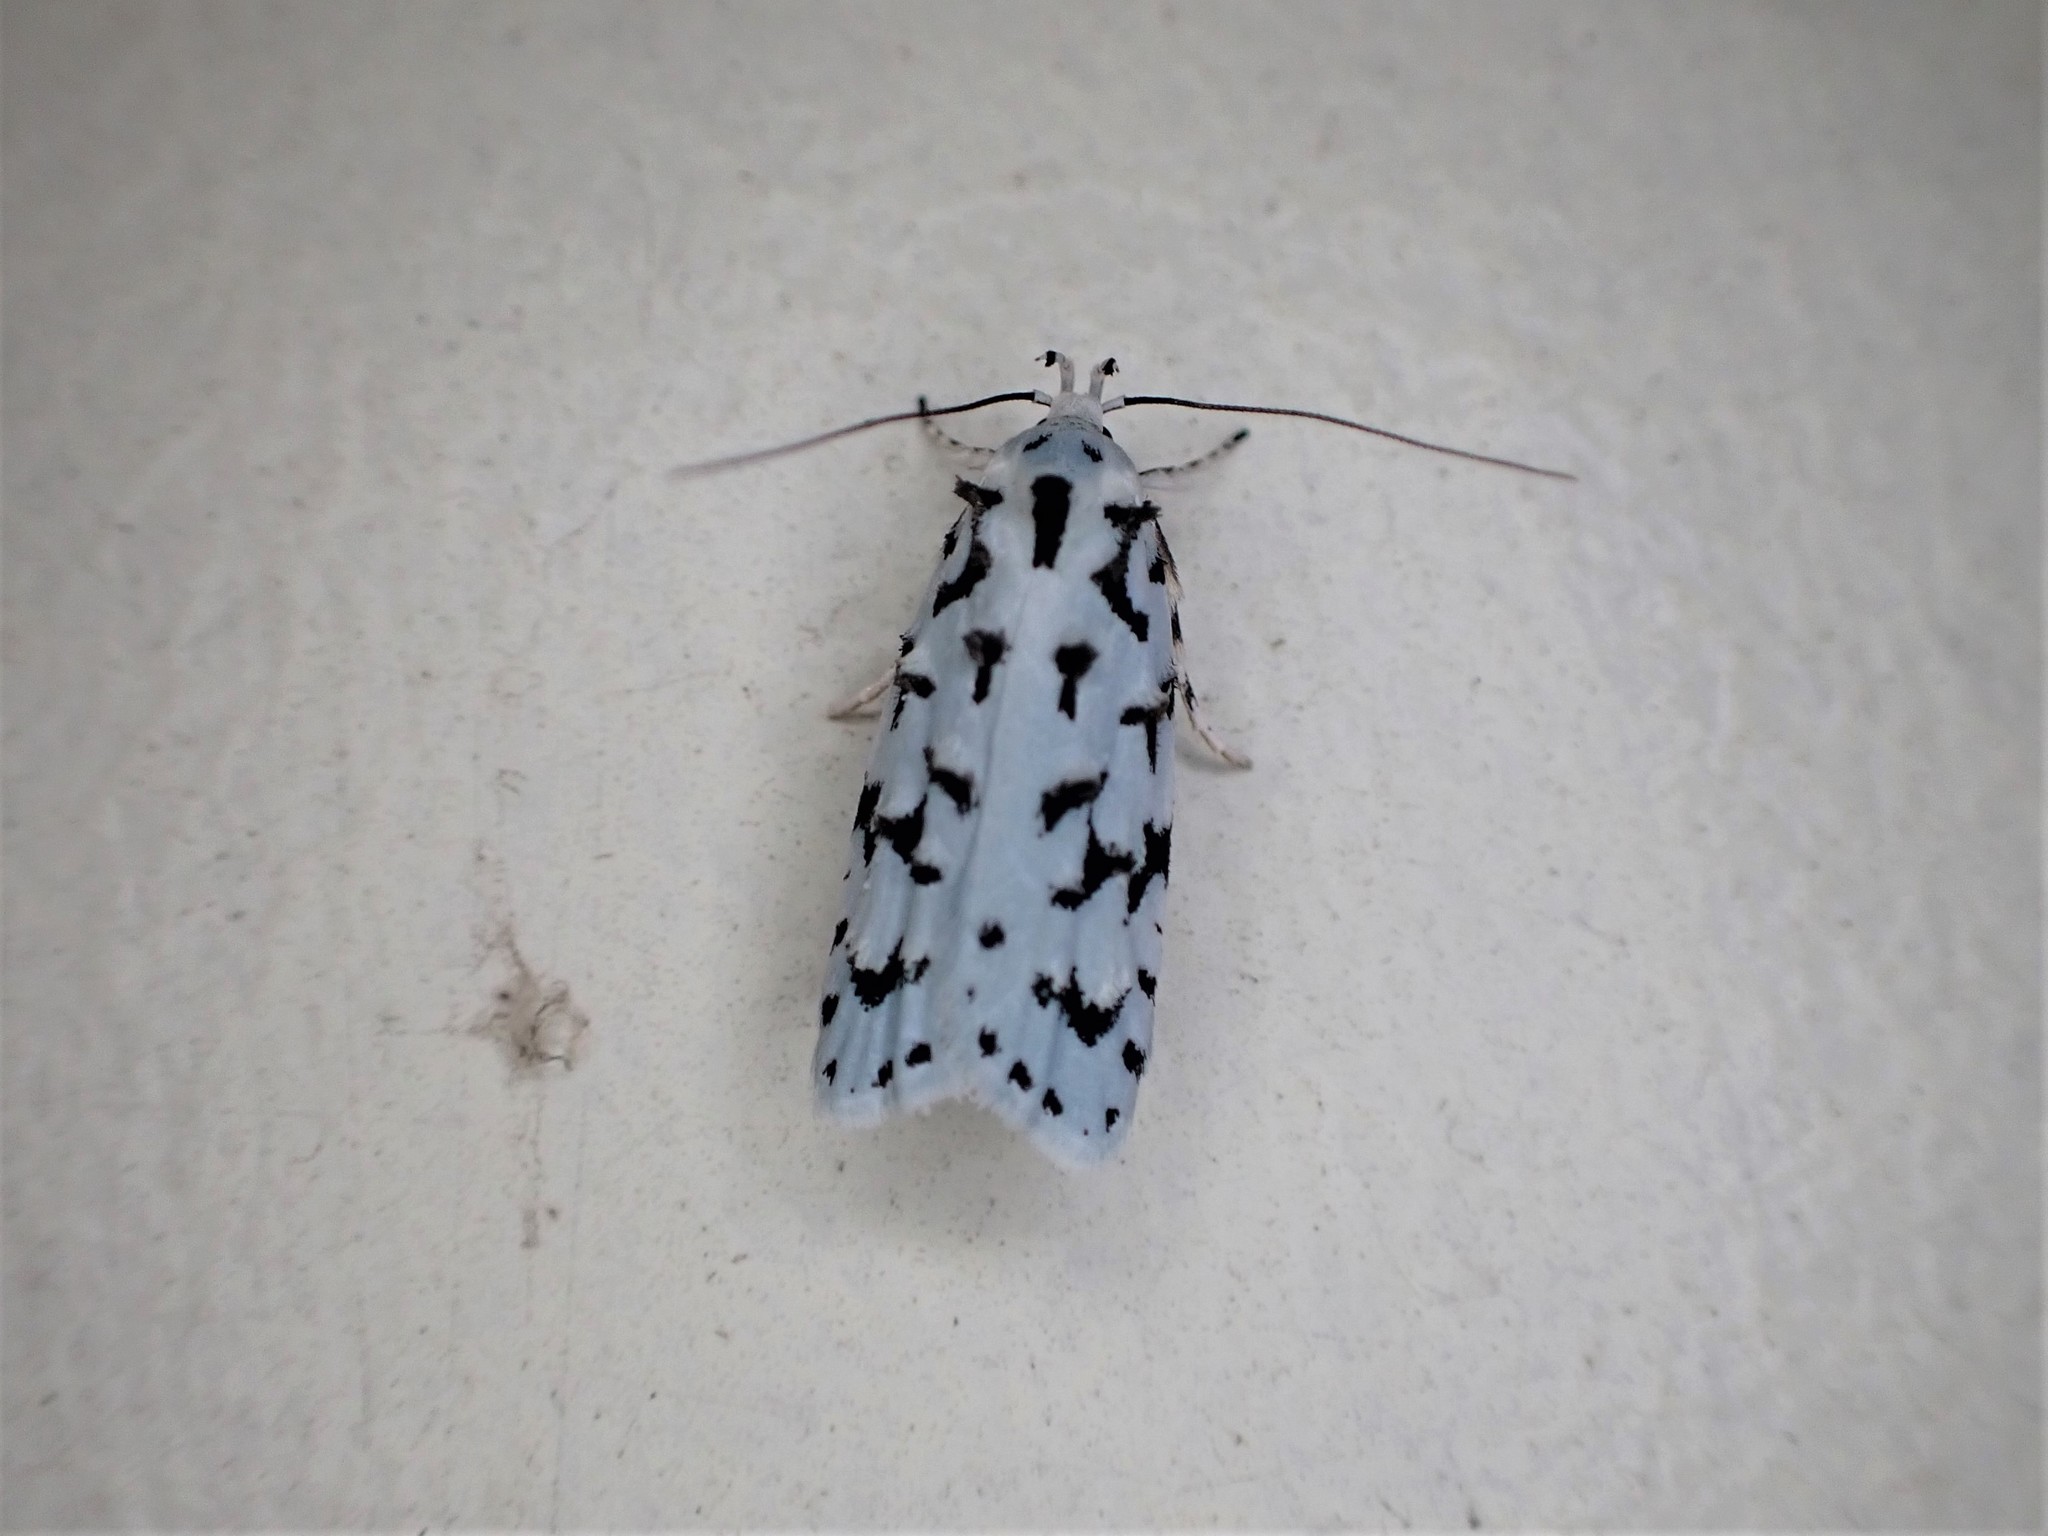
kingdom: Animalia
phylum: Arthropoda
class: Insecta
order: Lepidoptera
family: Oecophoridae
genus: Izatha
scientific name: Izatha peroneanella
